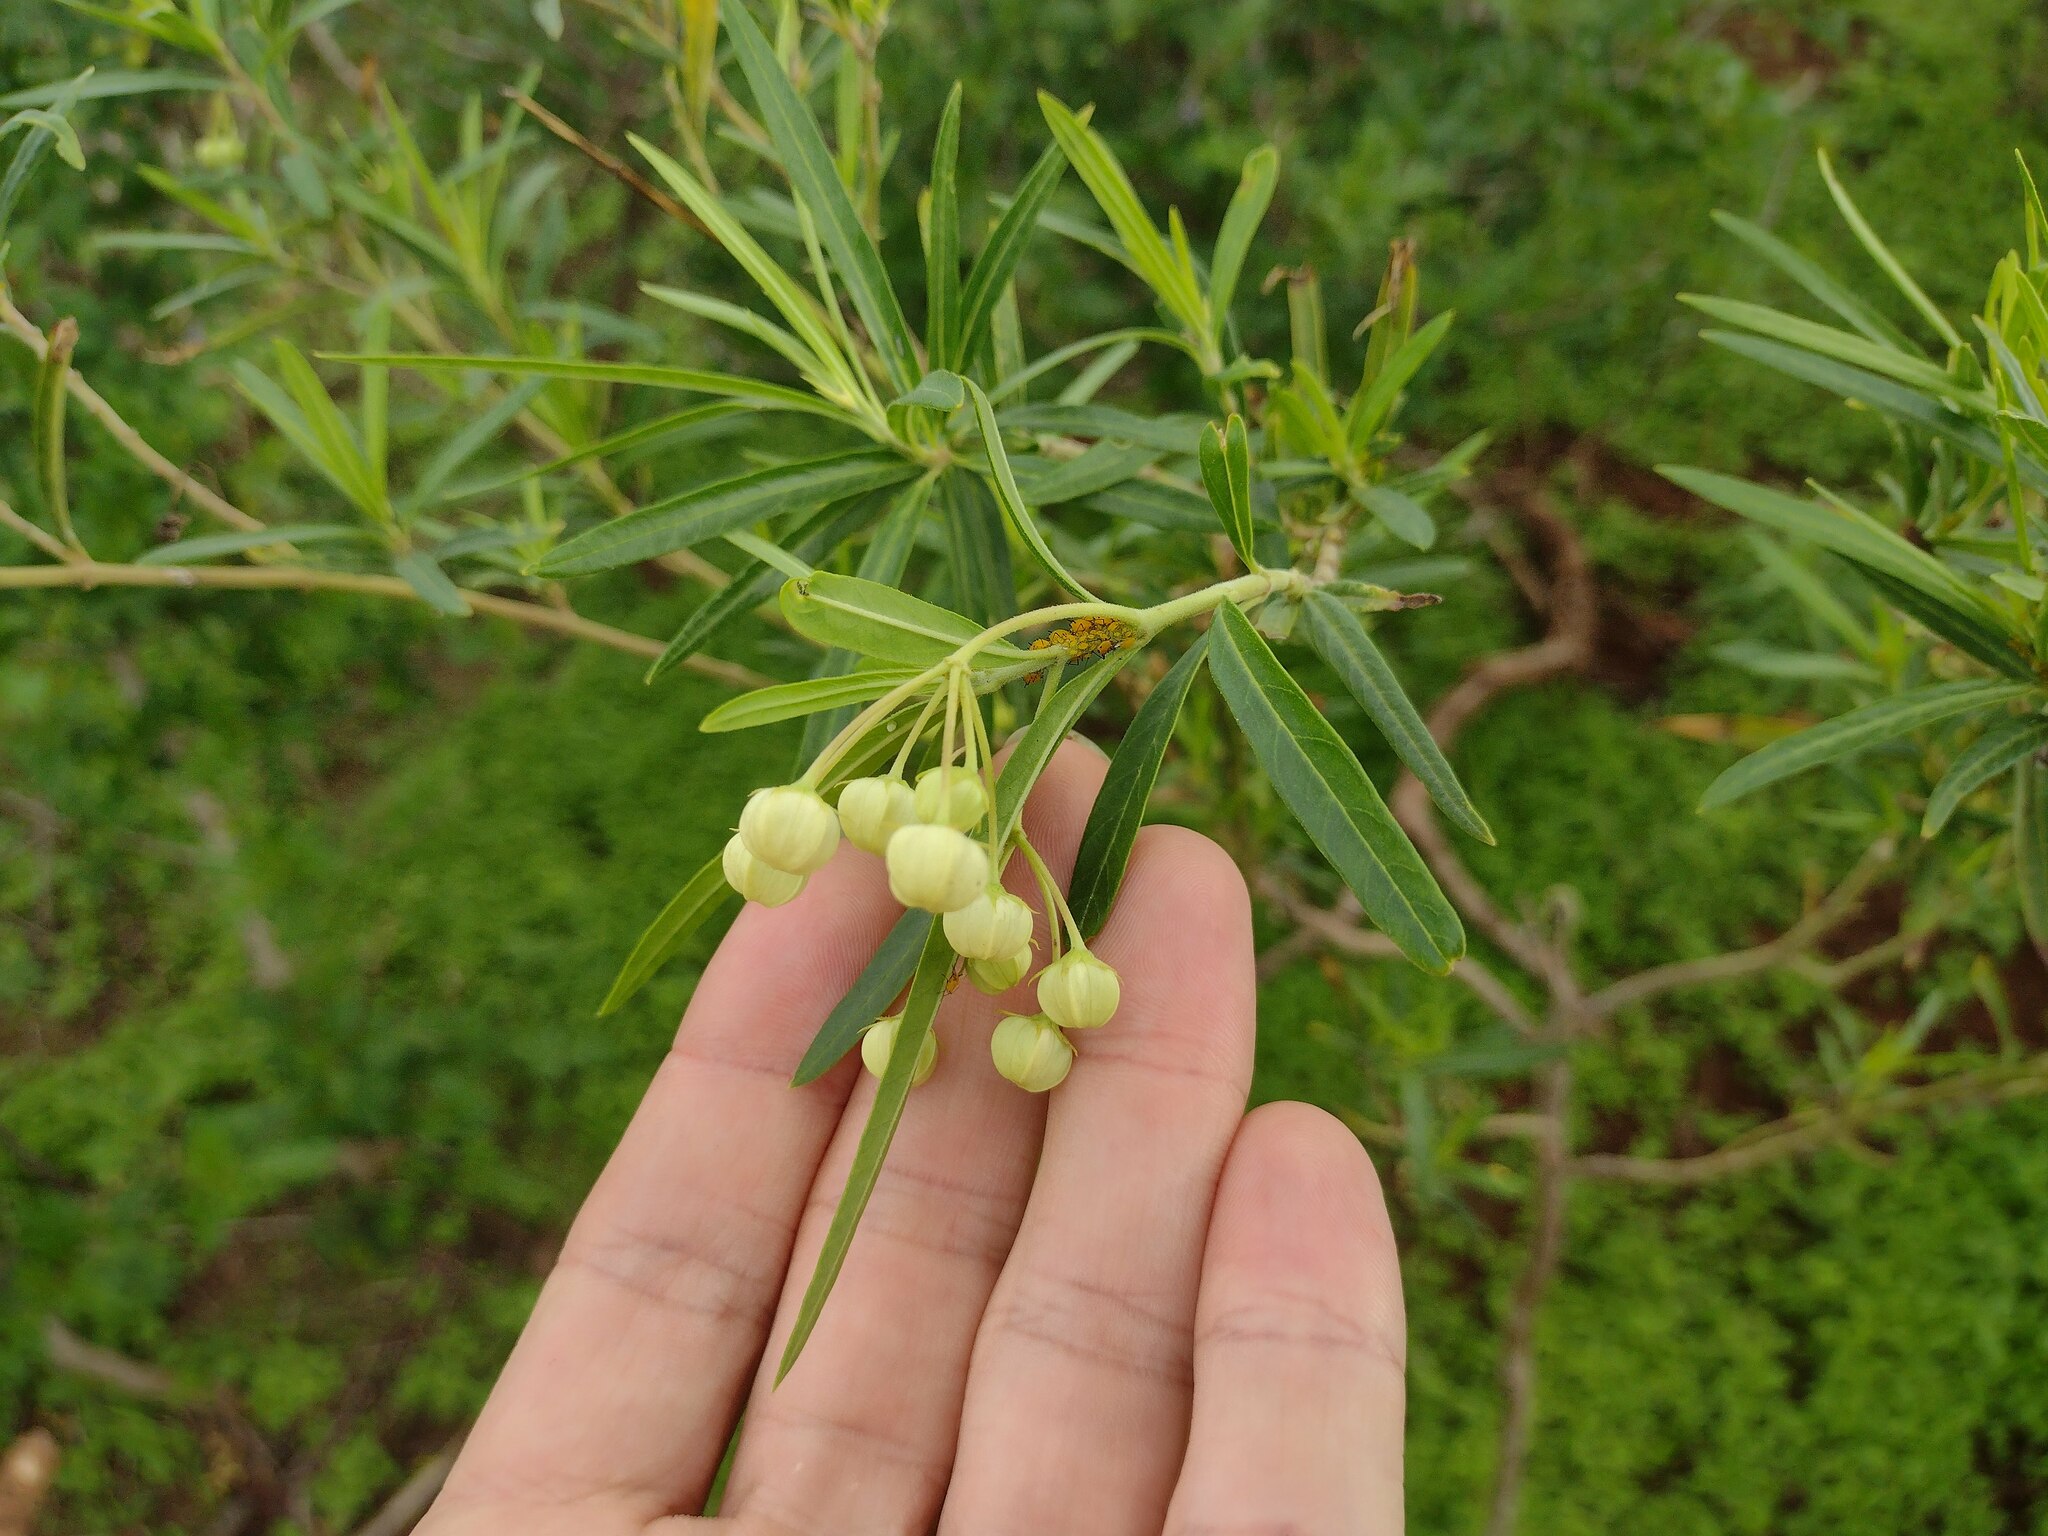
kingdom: Plantae
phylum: Tracheophyta
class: Magnoliopsida
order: Gentianales
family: Apocynaceae
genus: Gomphocarpus
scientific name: Gomphocarpus physocarpus
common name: Balloon cotton bush
